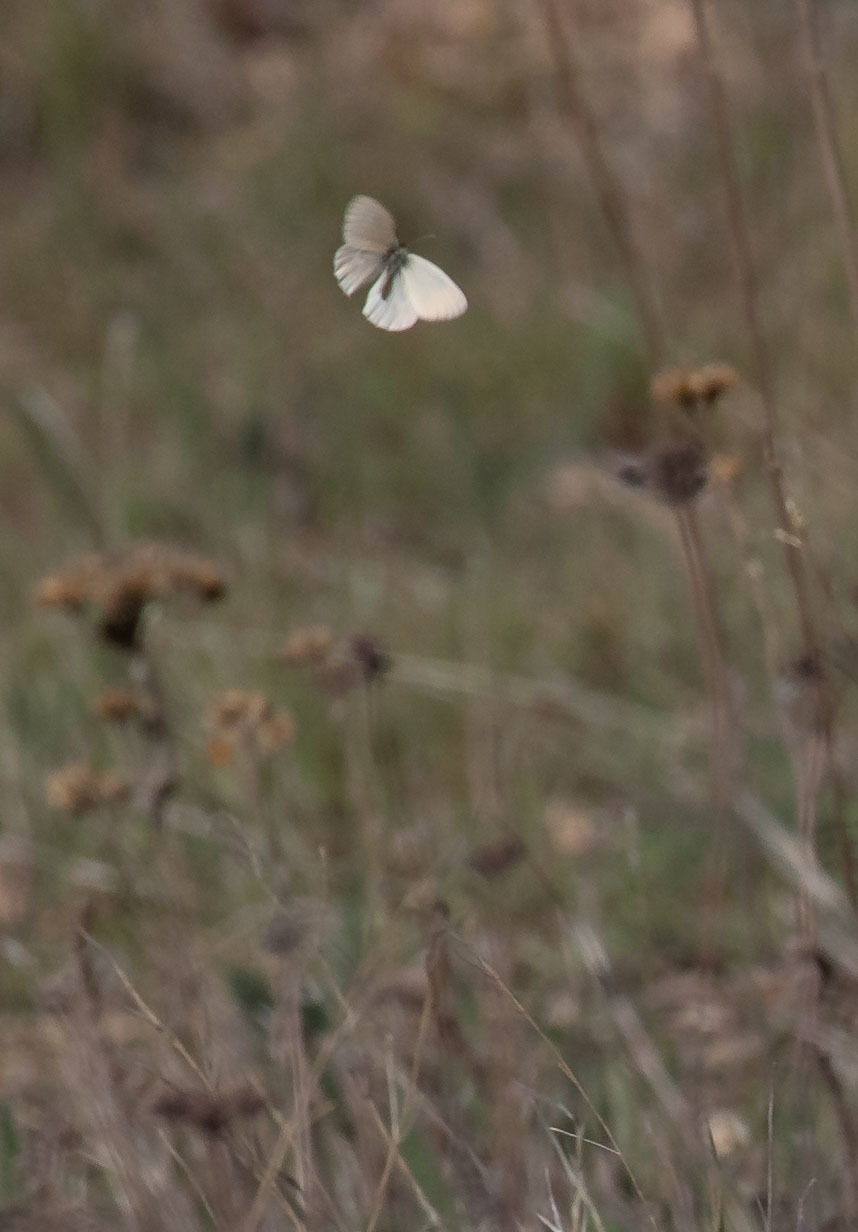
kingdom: Animalia
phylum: Arthropoda
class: Insecta
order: Lepidoptera
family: Nymphalidae
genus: Coenonympha
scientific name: Coenonympha california
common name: Common ringlet
